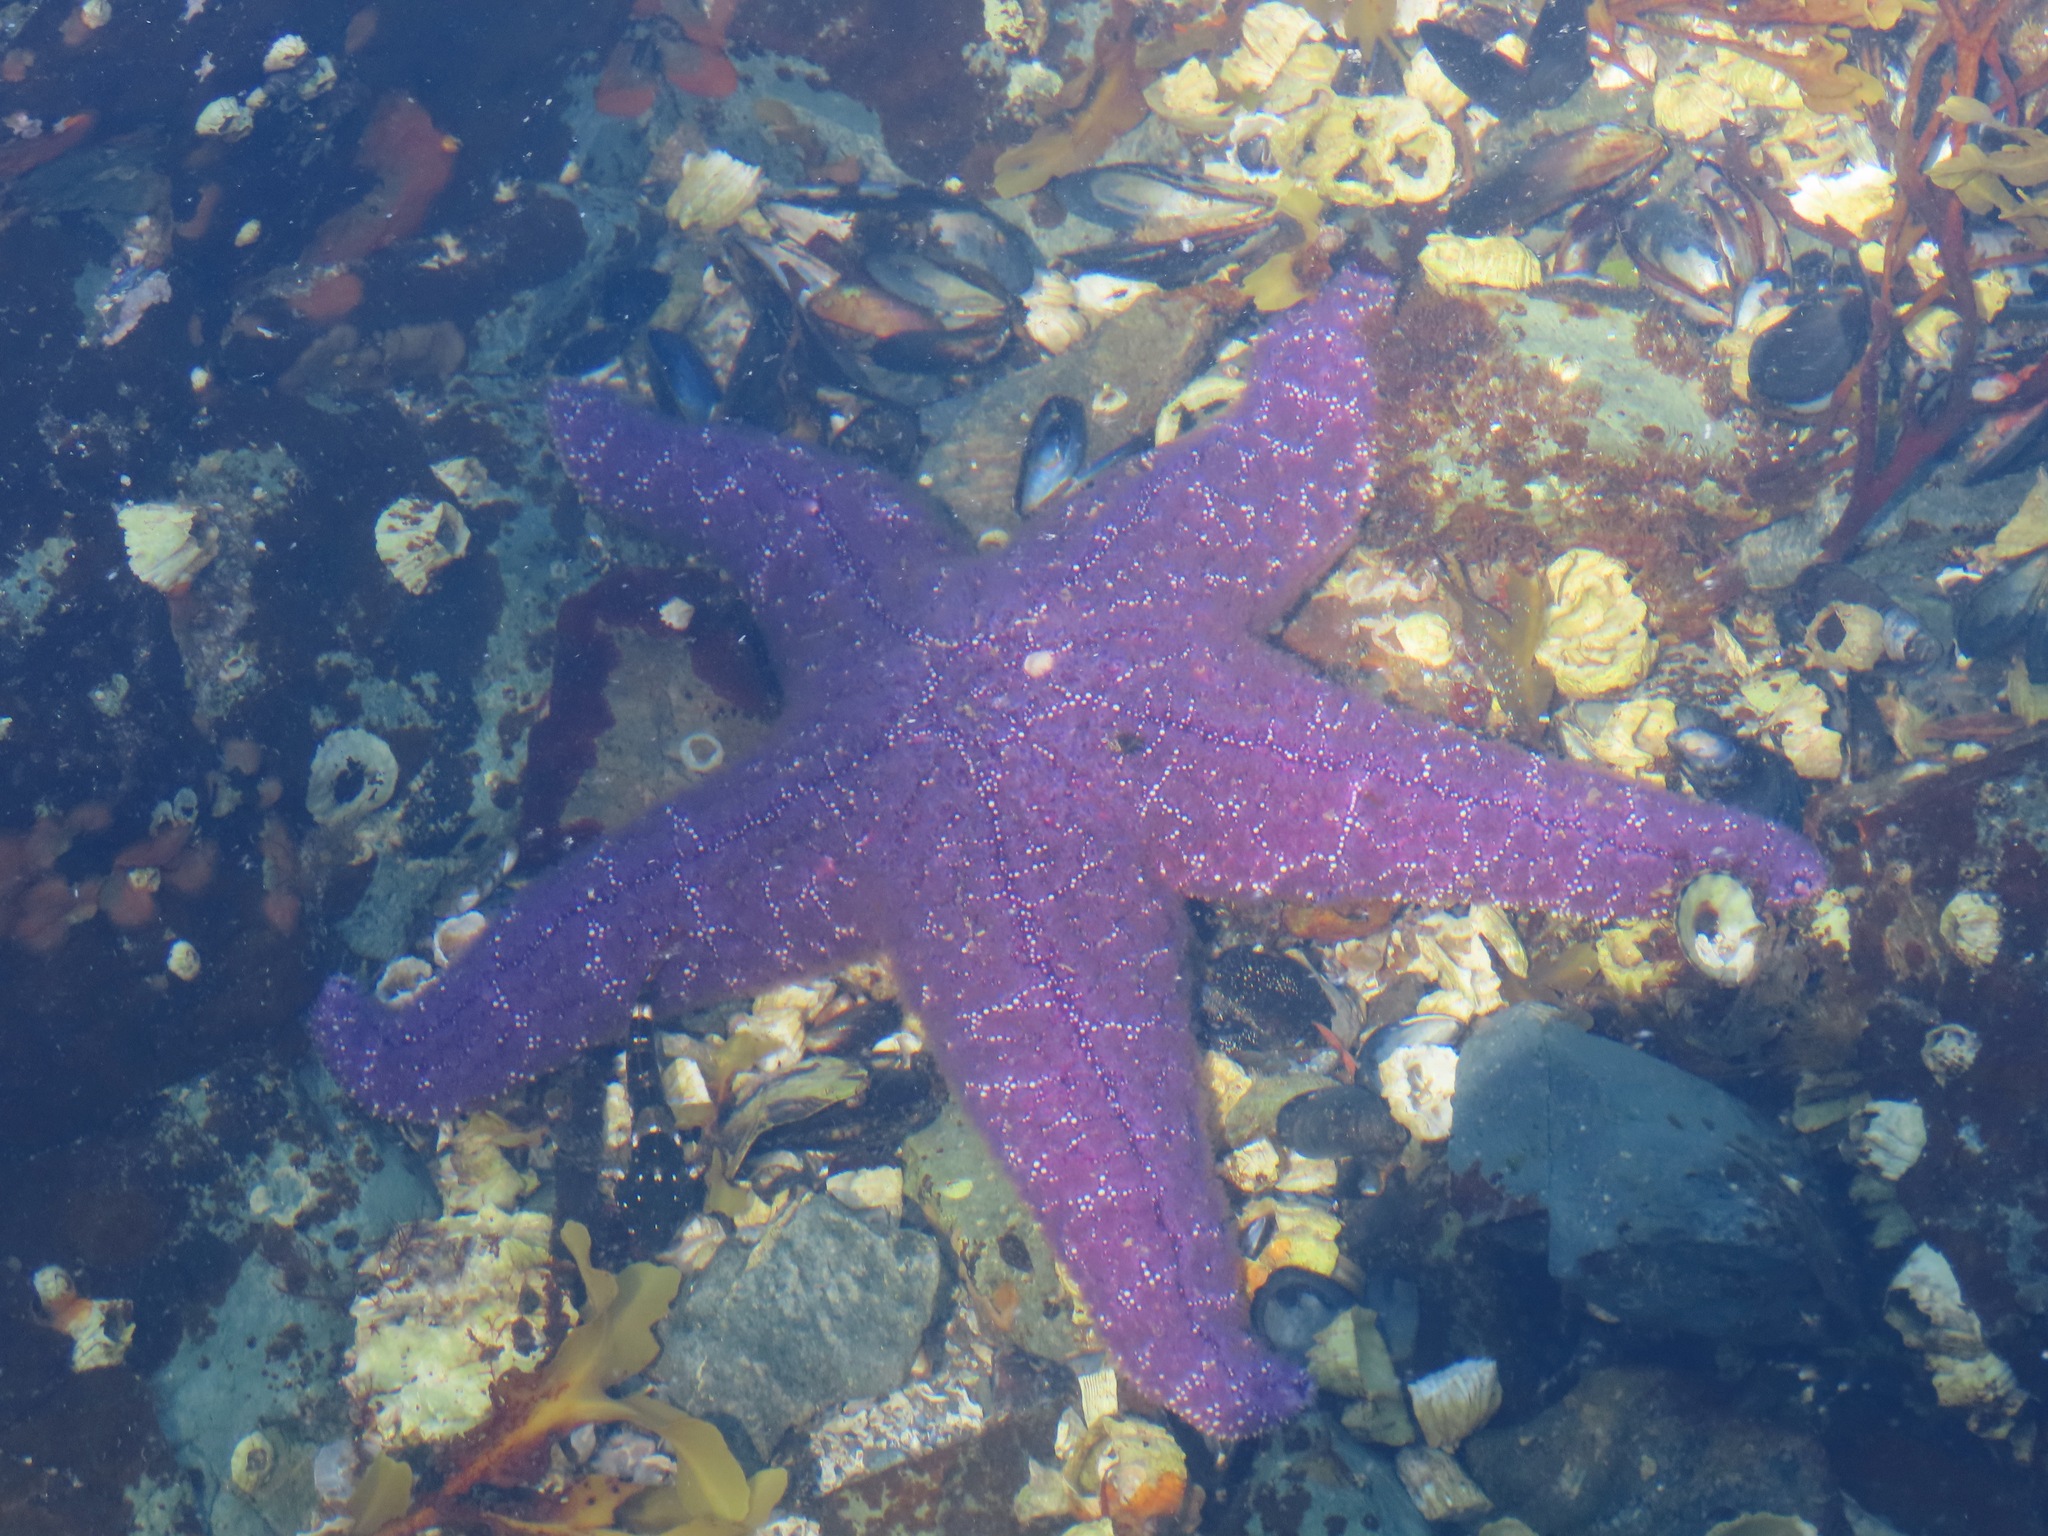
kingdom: Animalia
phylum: Echinodermata
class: Asteroidea
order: Forcipulatida
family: Asteriidae
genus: Pisaster
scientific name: Pisaster ochraceus
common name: Ochre stars
